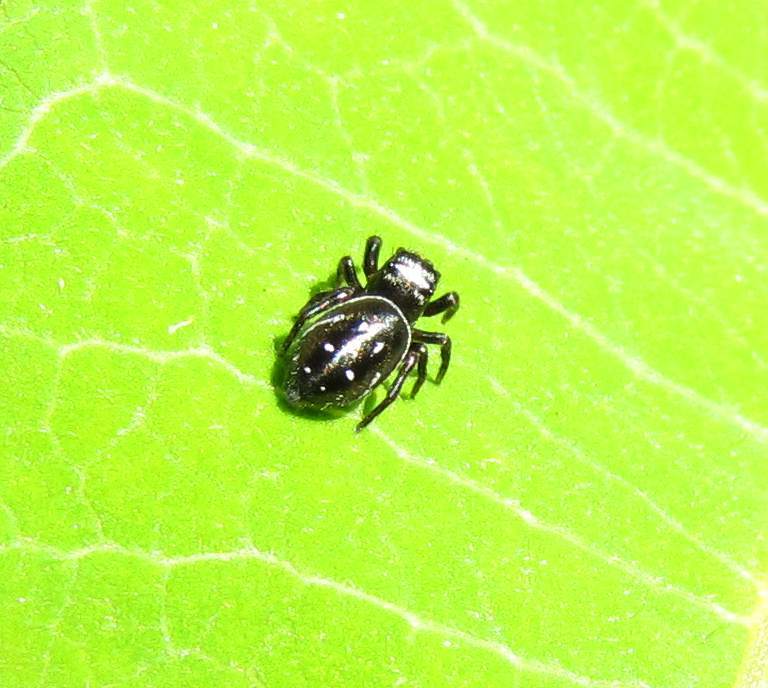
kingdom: Animalia
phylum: Arthropoda
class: Arachnida
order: Araneae
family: Salticidae
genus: Phidippus
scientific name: Phidippus clarus
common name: Brilliant jumping spider
